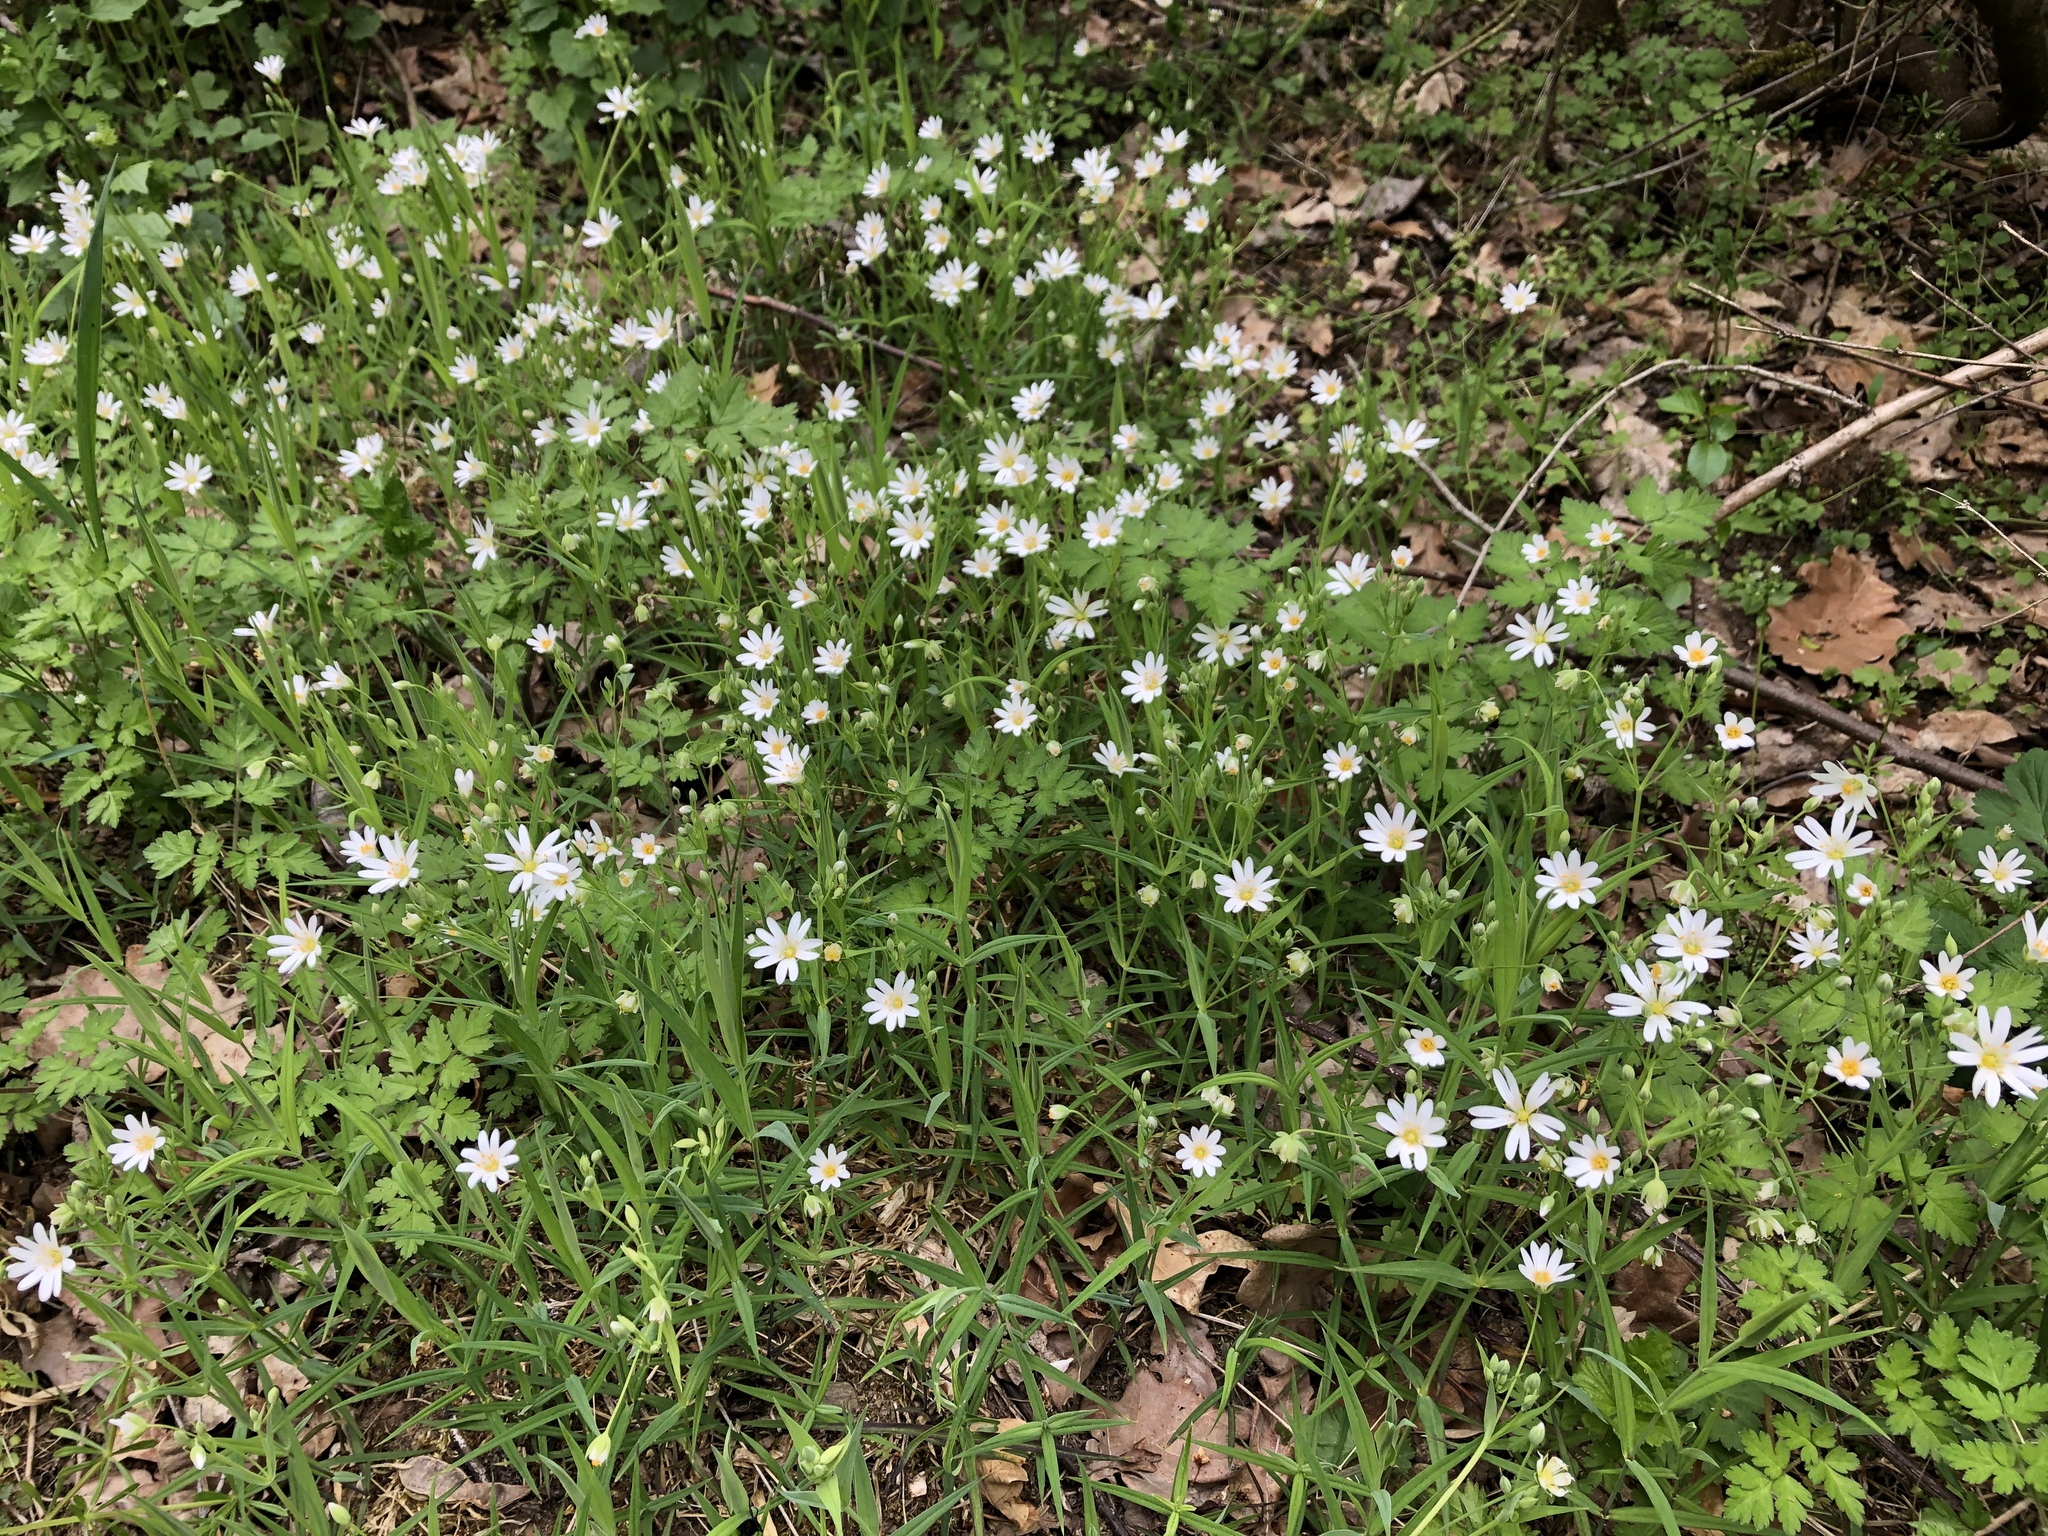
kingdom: Plantae
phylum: Tracheophyta
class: Magnoliopsida
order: Caryophyllales
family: Caryophyllaceae
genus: Rabelera
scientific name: Rabelera holostea
